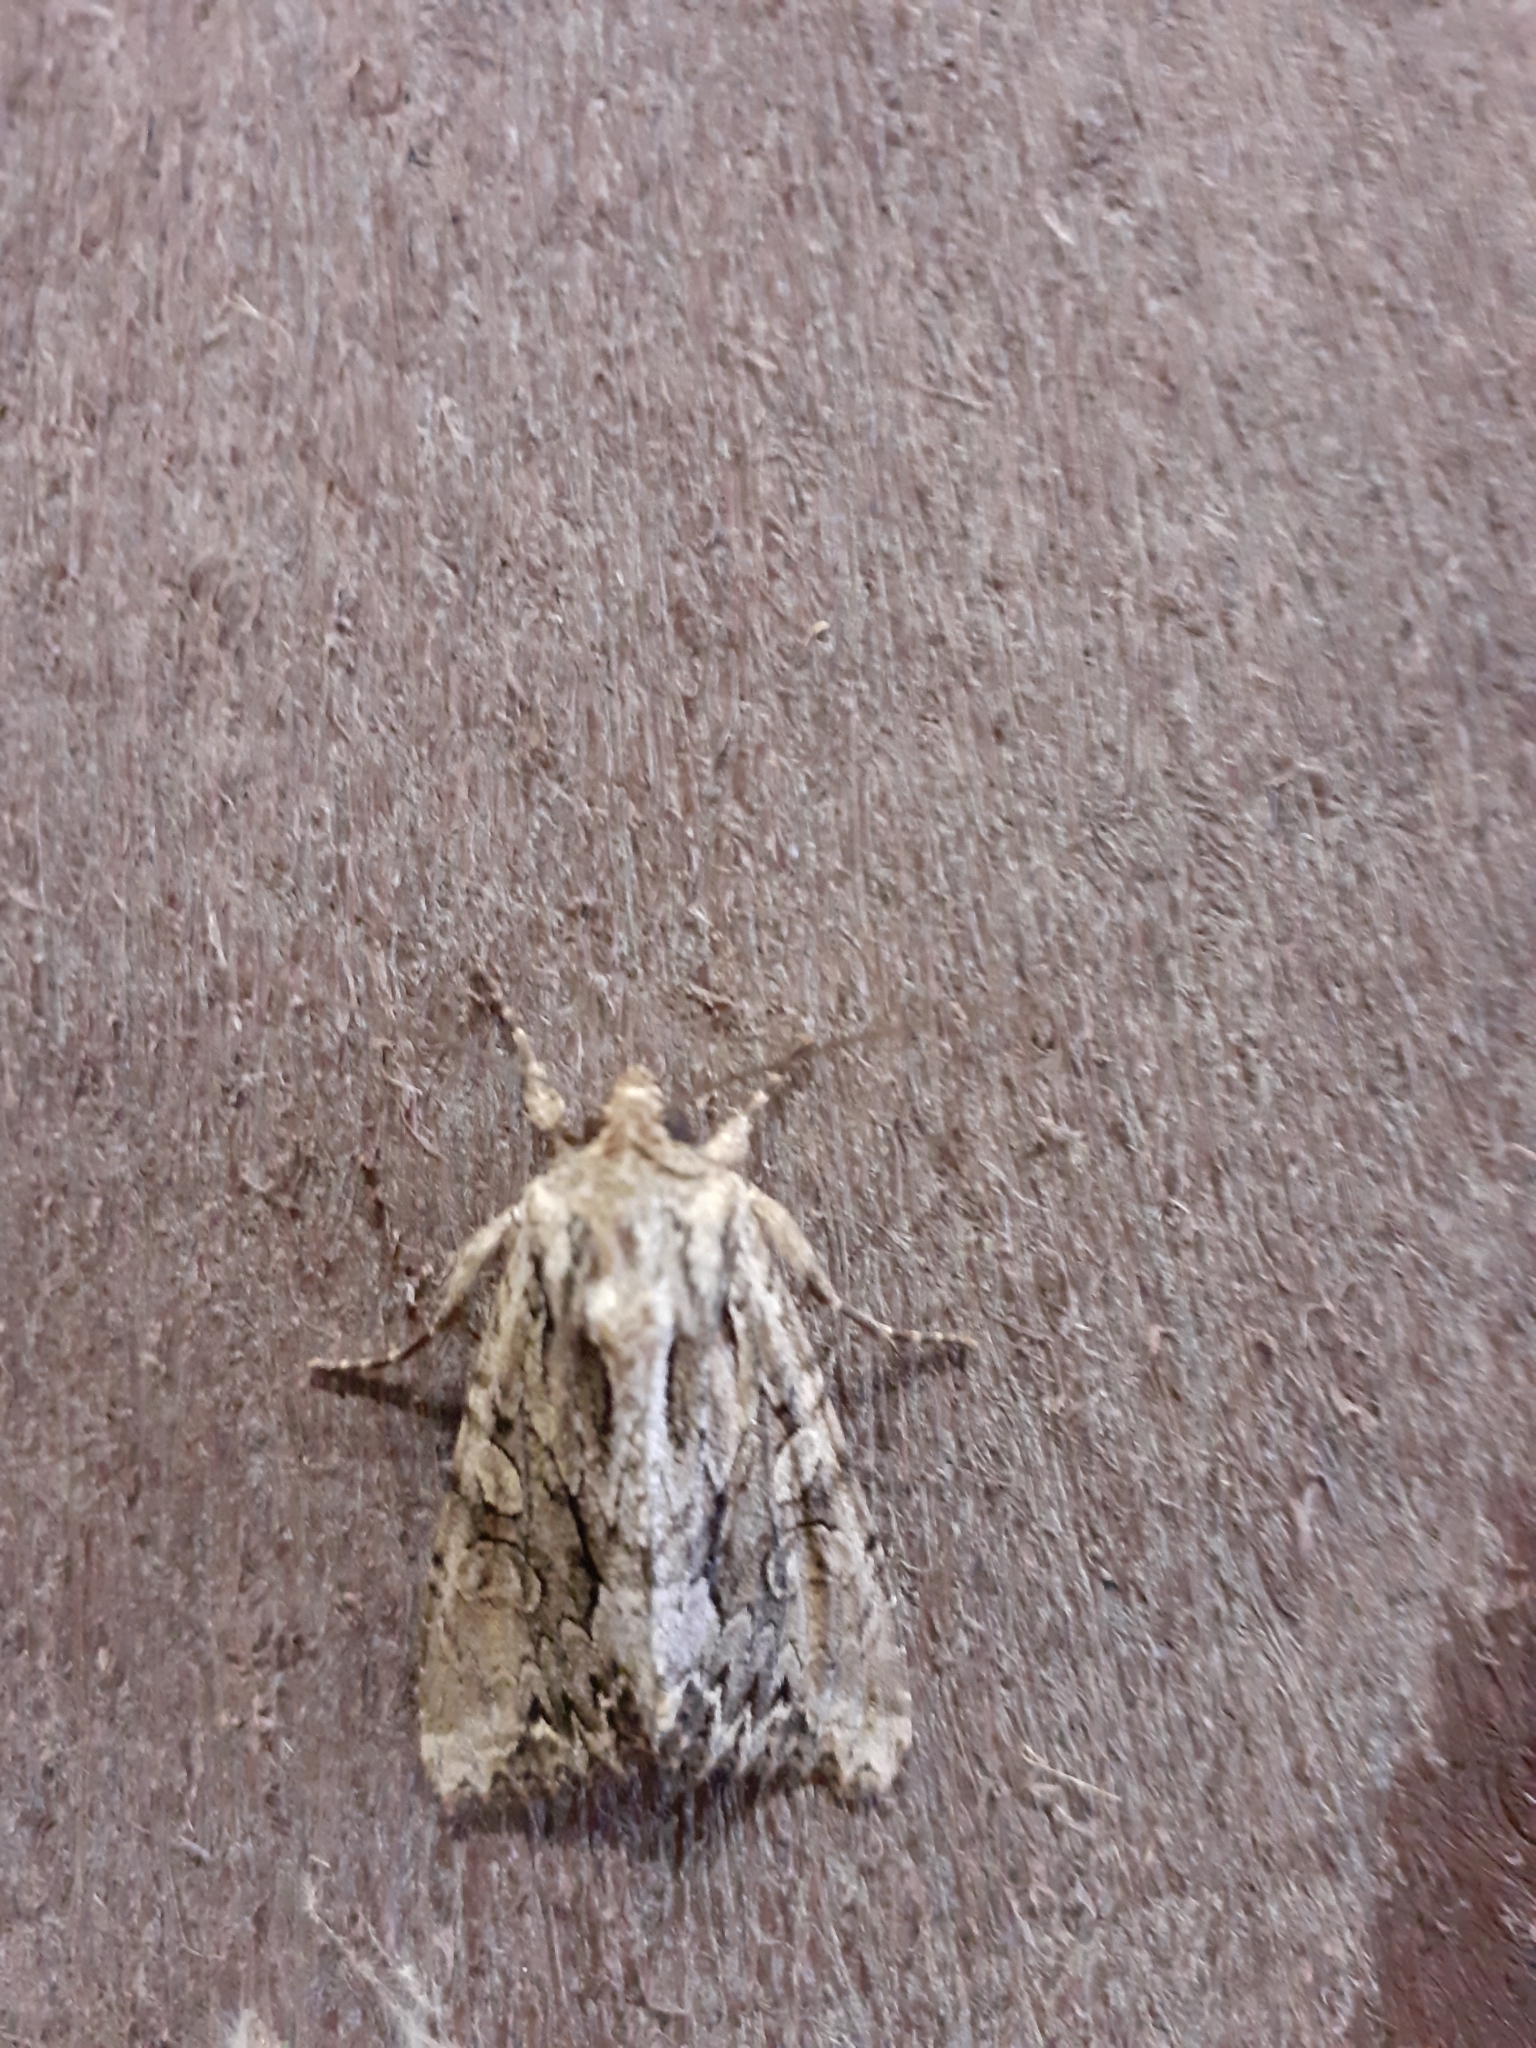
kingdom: Animalia
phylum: Arthropoda
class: Insecta
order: Lepidoptera
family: Noctuidae
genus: Apamea
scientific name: Apamea monoglypha
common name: Dark arches
